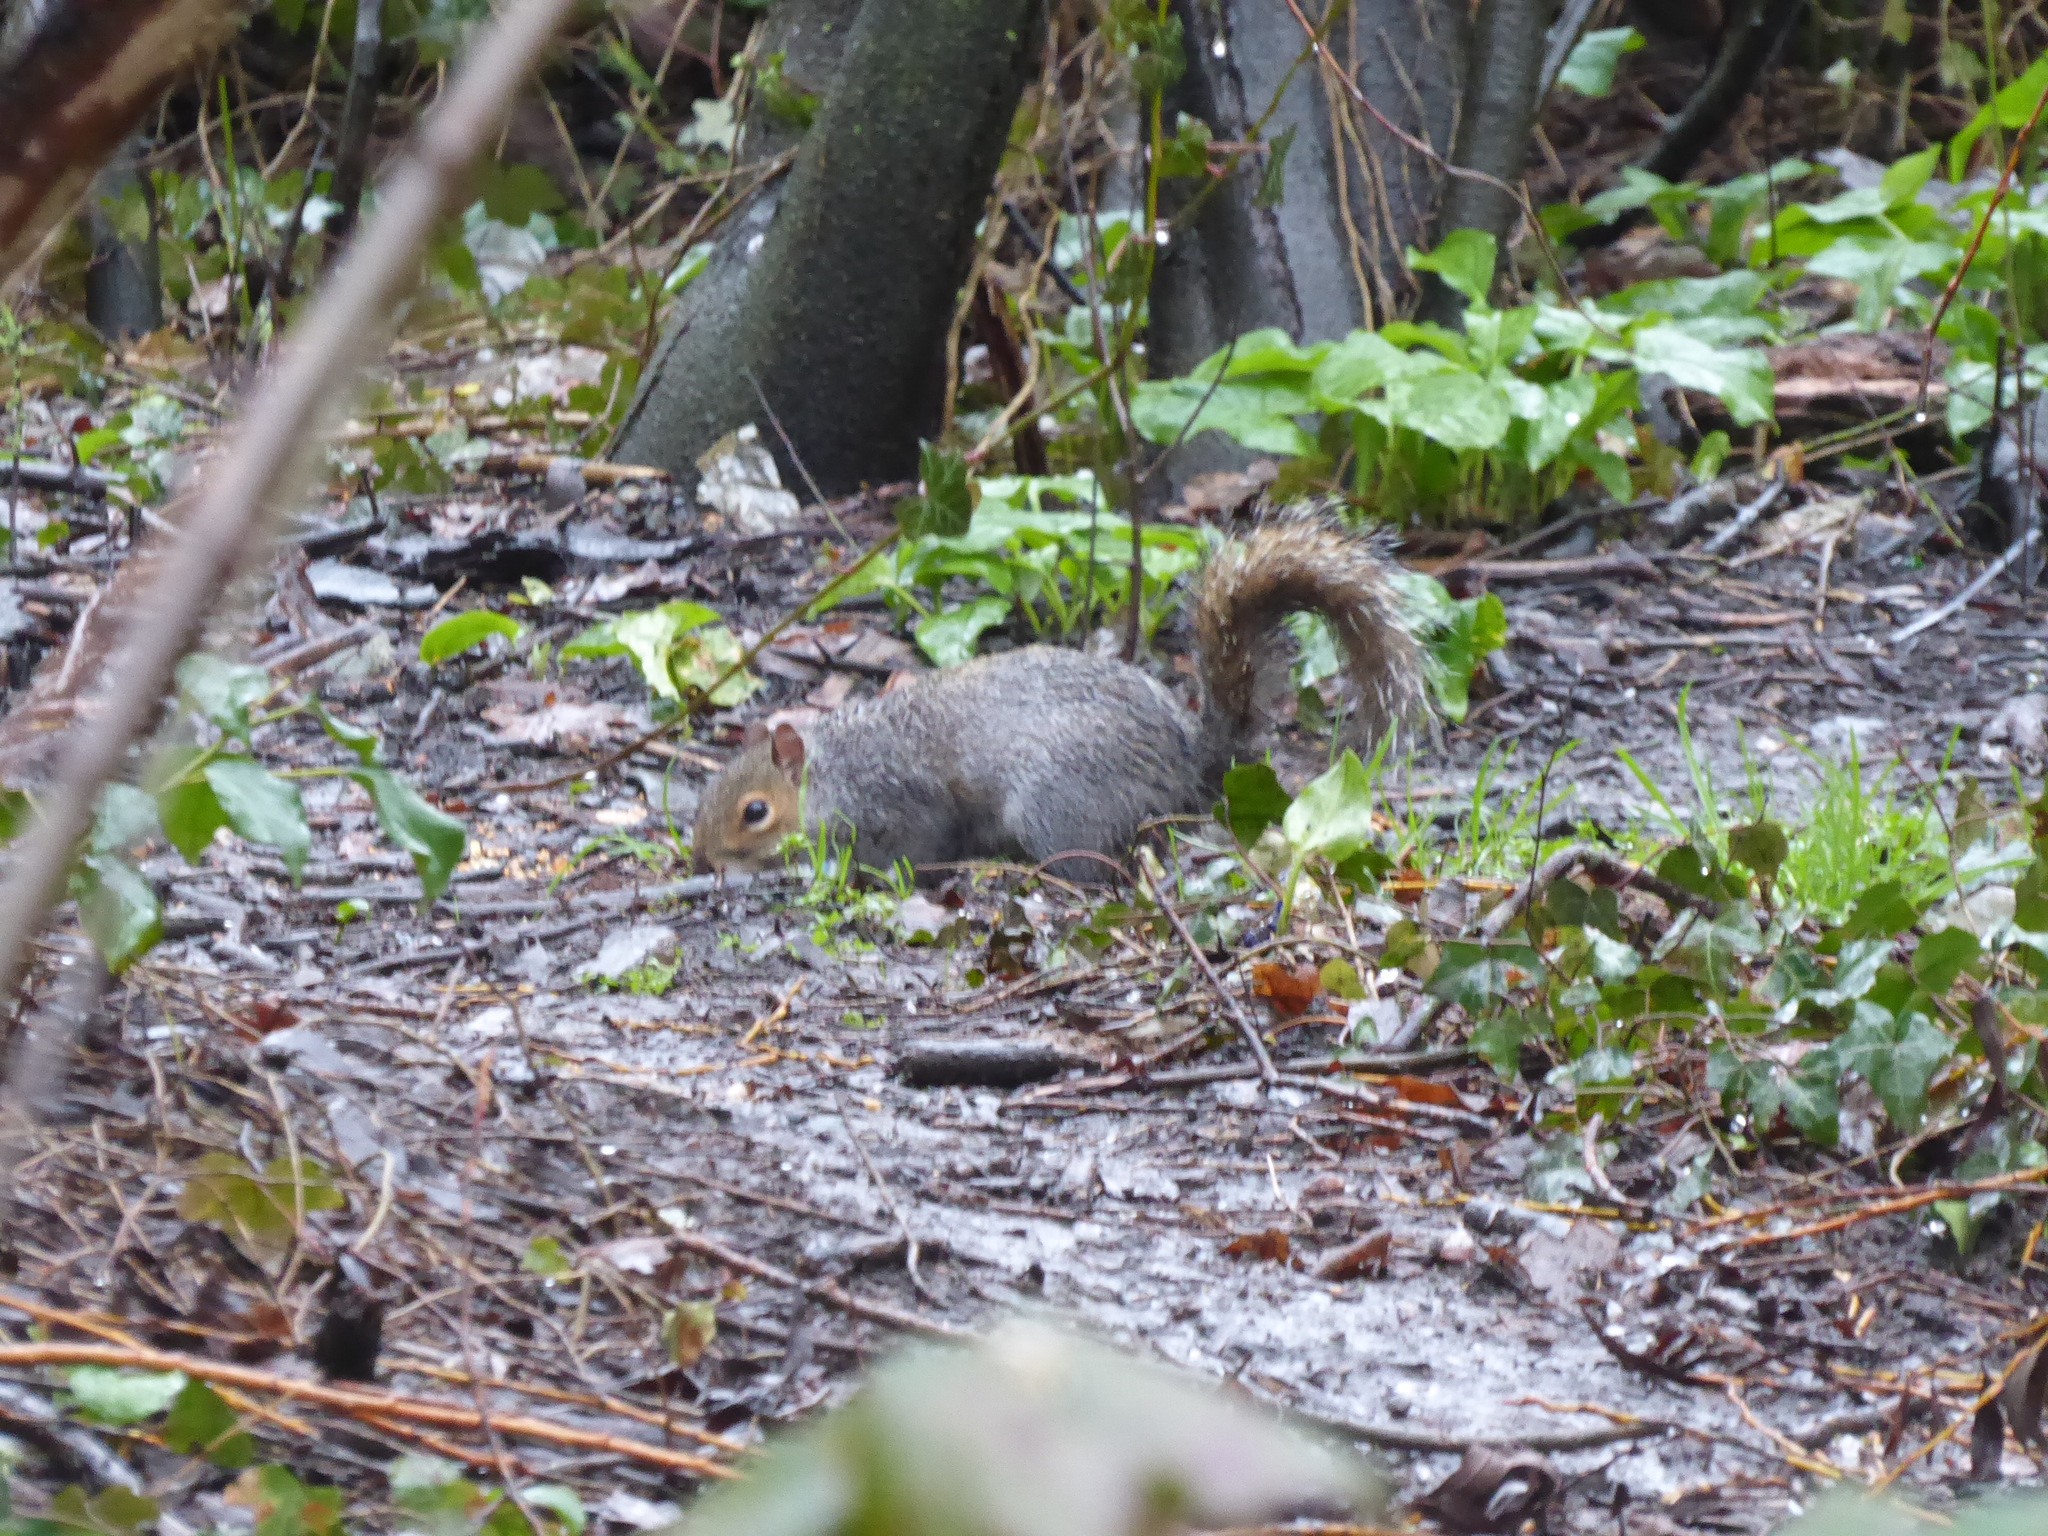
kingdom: Animalia
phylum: Chordata
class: Mammalia
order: Rodentia
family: Sciuridae
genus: Sciurus
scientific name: Sciurus carolinensis
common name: Eastern gray squirrel
